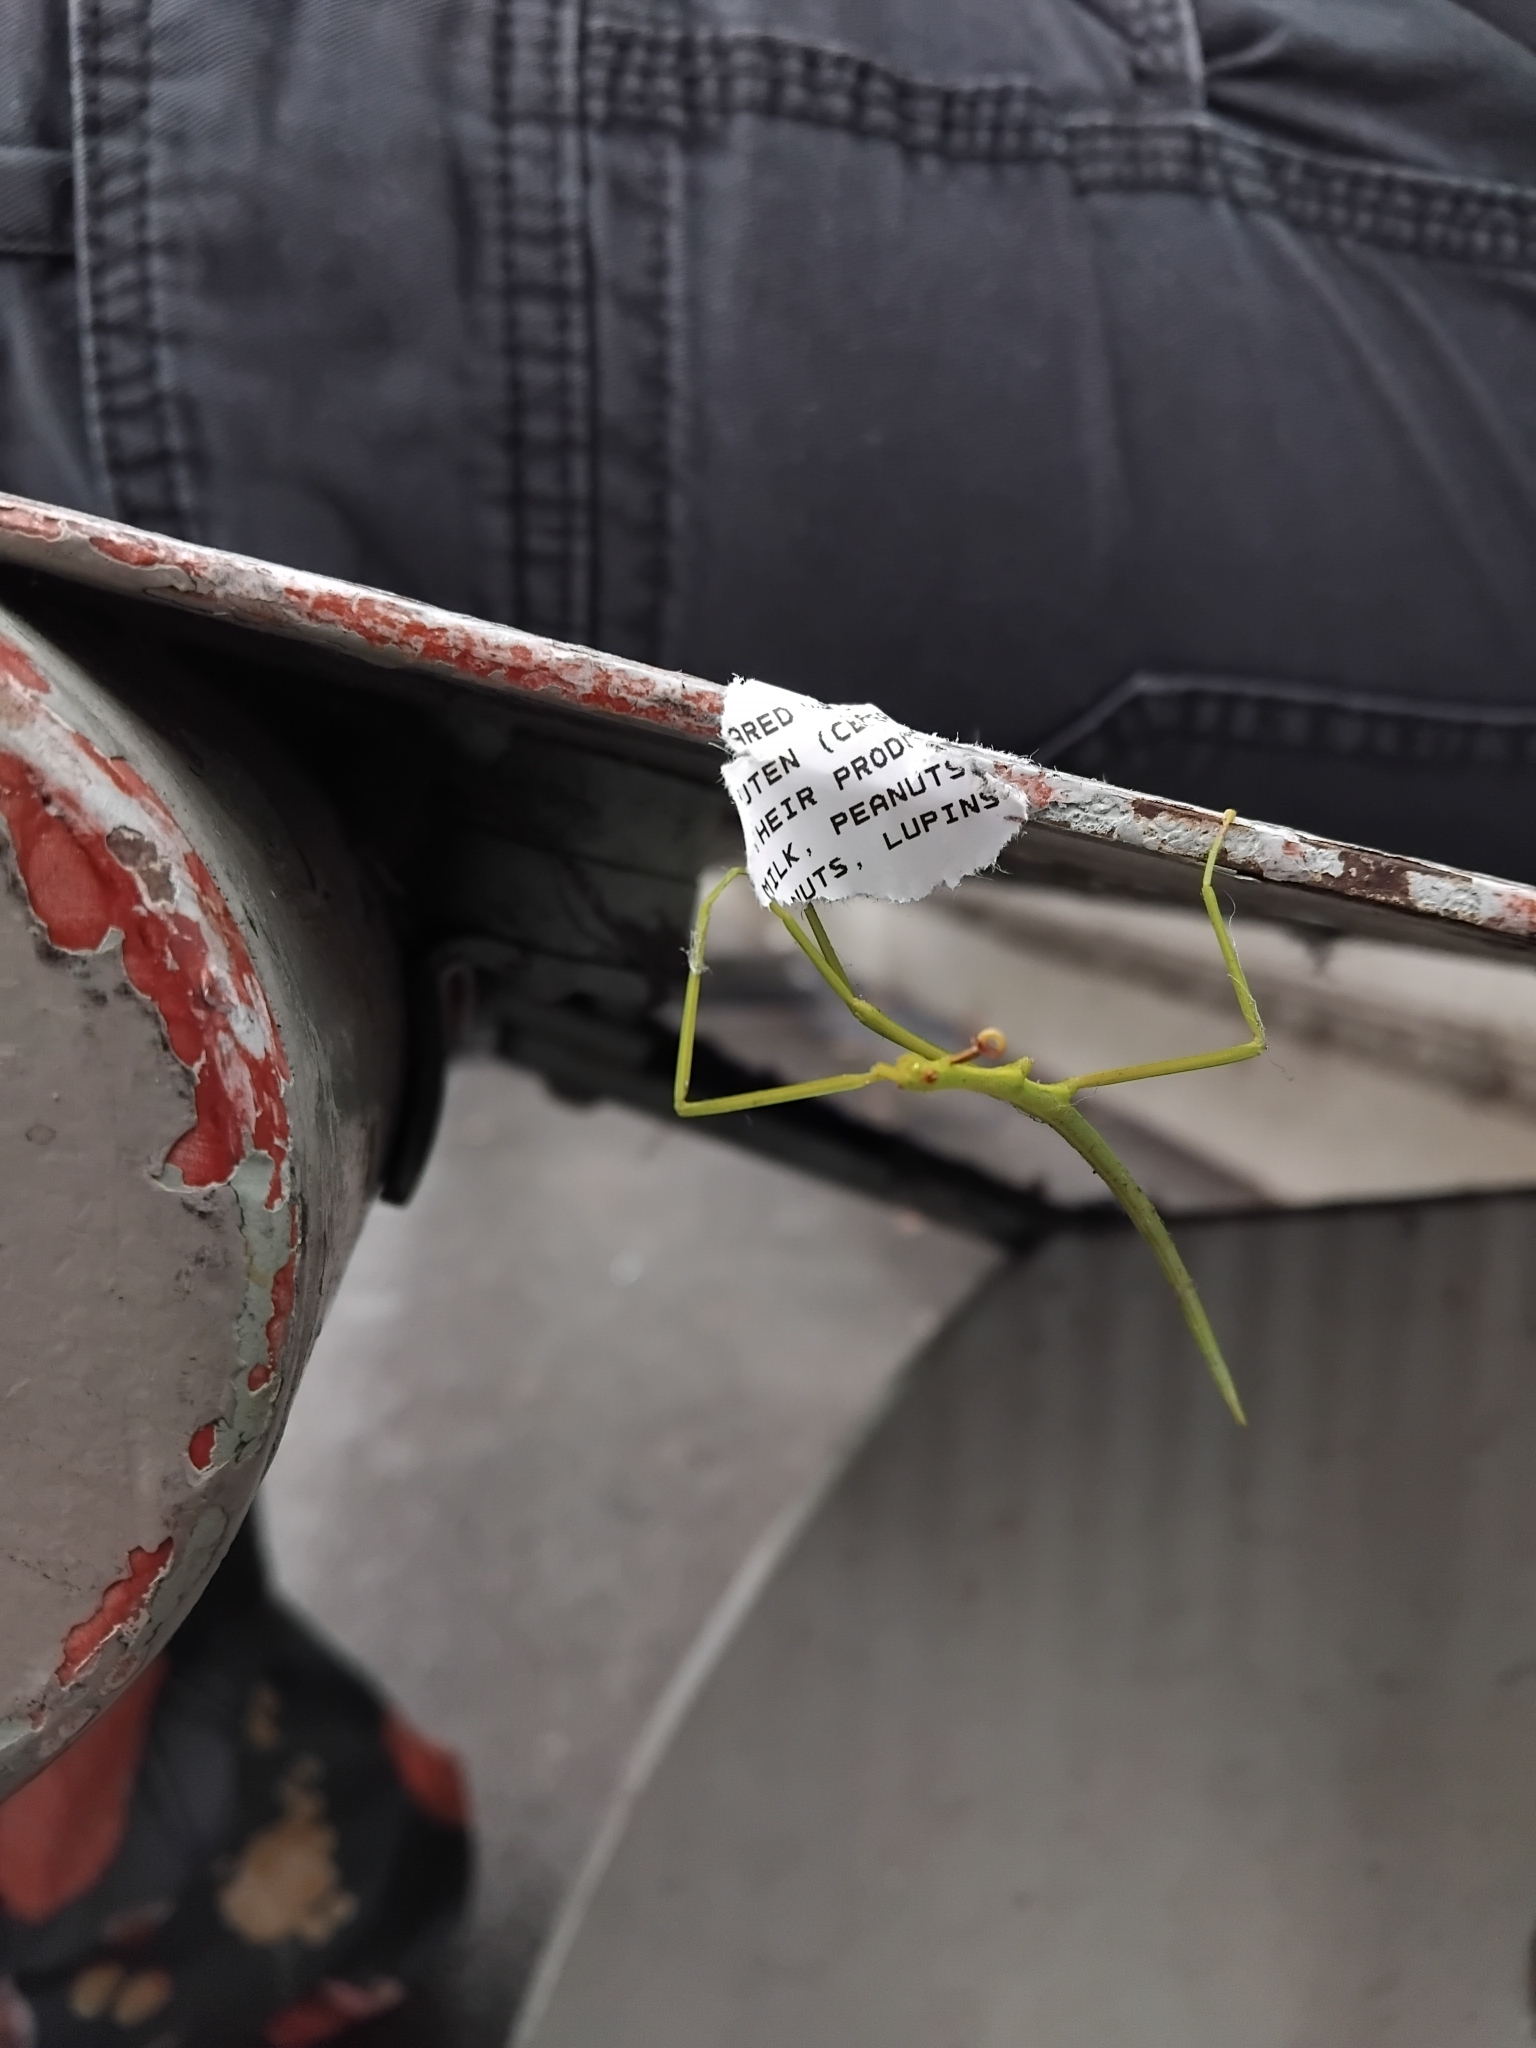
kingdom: Animalia
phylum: Arthropoda
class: Insecta
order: Phasmida
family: Phasmatidae
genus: Didymuria
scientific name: Didymuria violescens
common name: Spur-legged stick-insect
